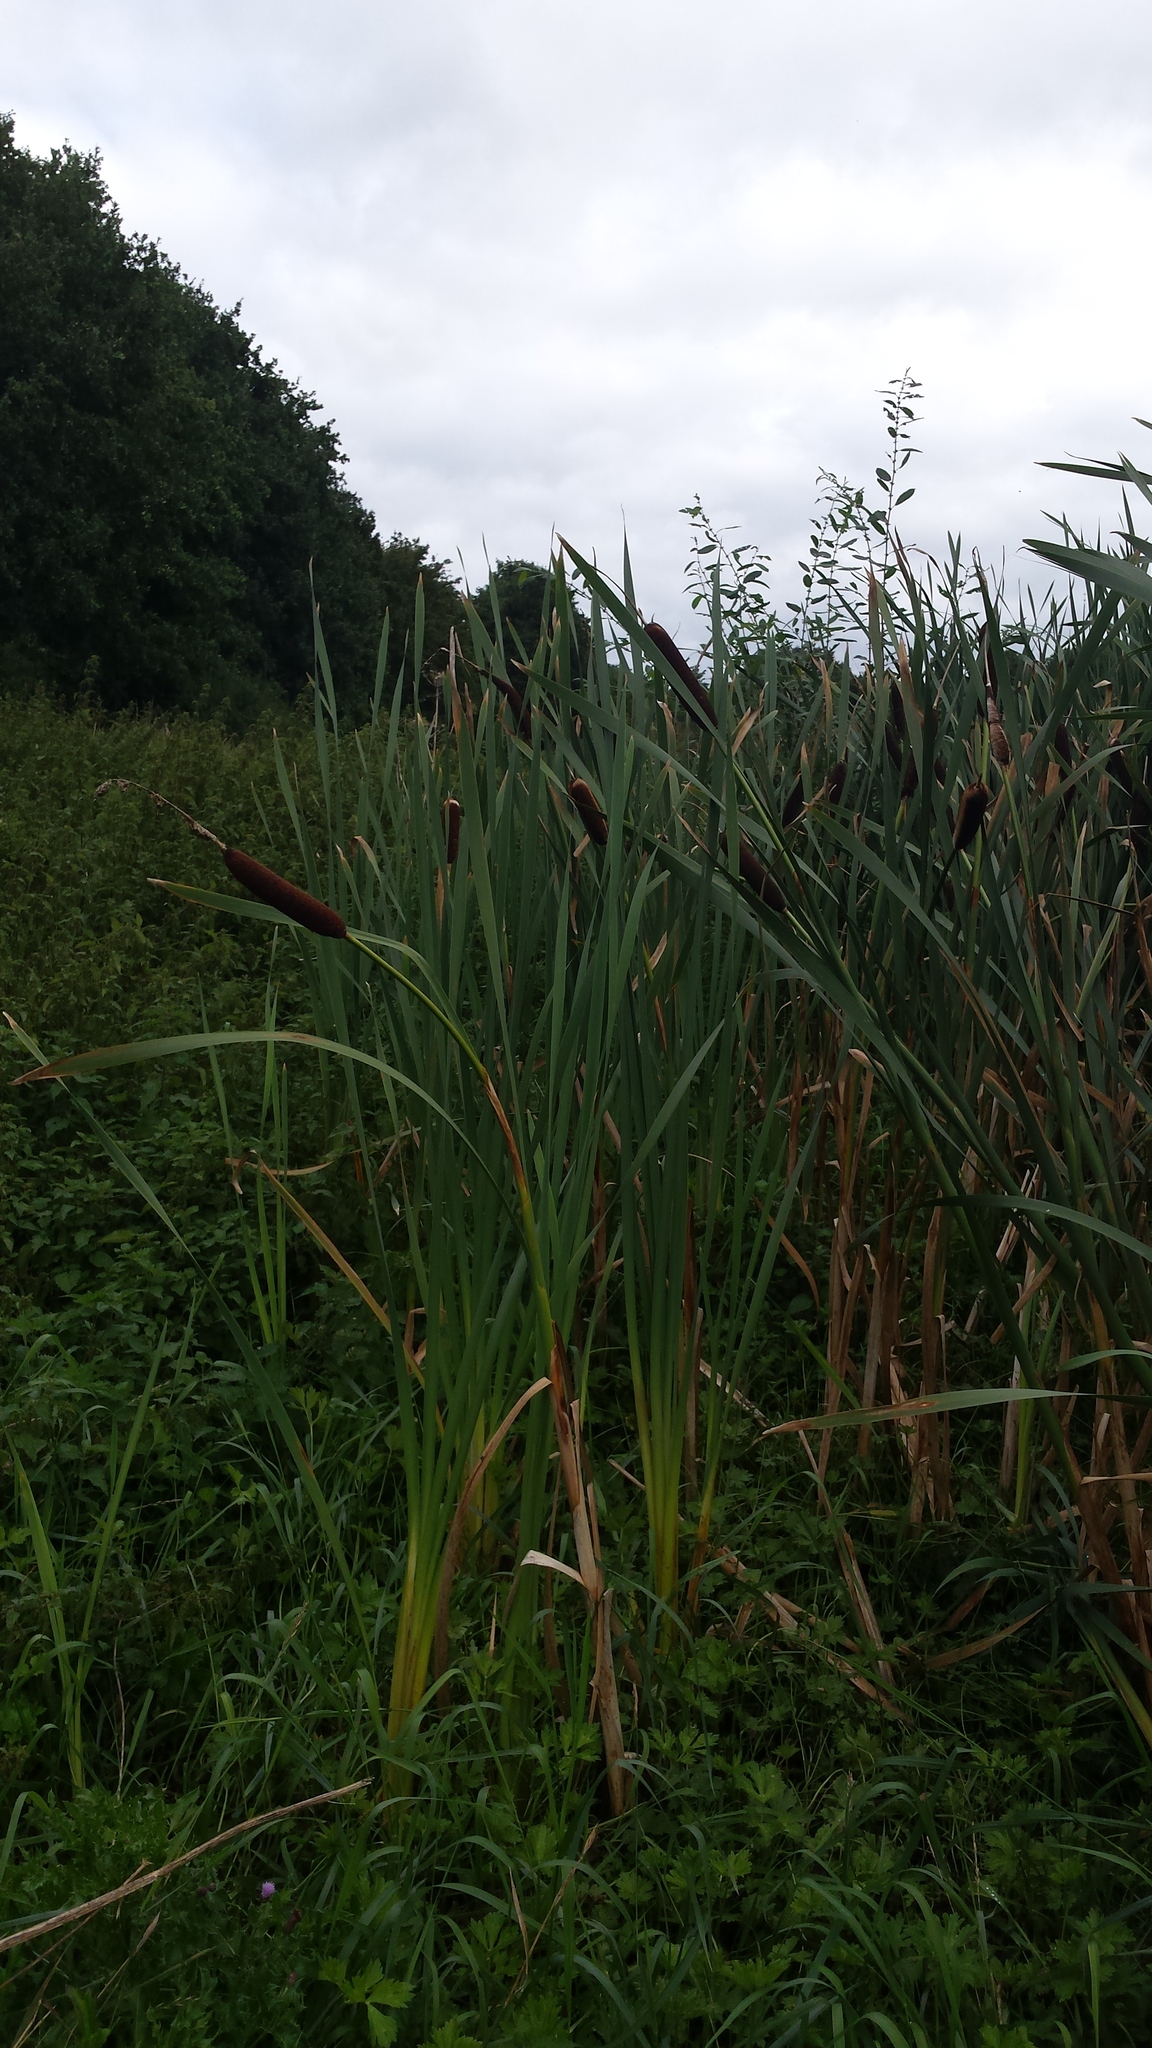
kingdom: Plantae
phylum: Tracheophyta
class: Liliopsida
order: Poales
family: Typhaceae
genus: Typha
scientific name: Typha latifolia
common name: Broadleaf cattail
